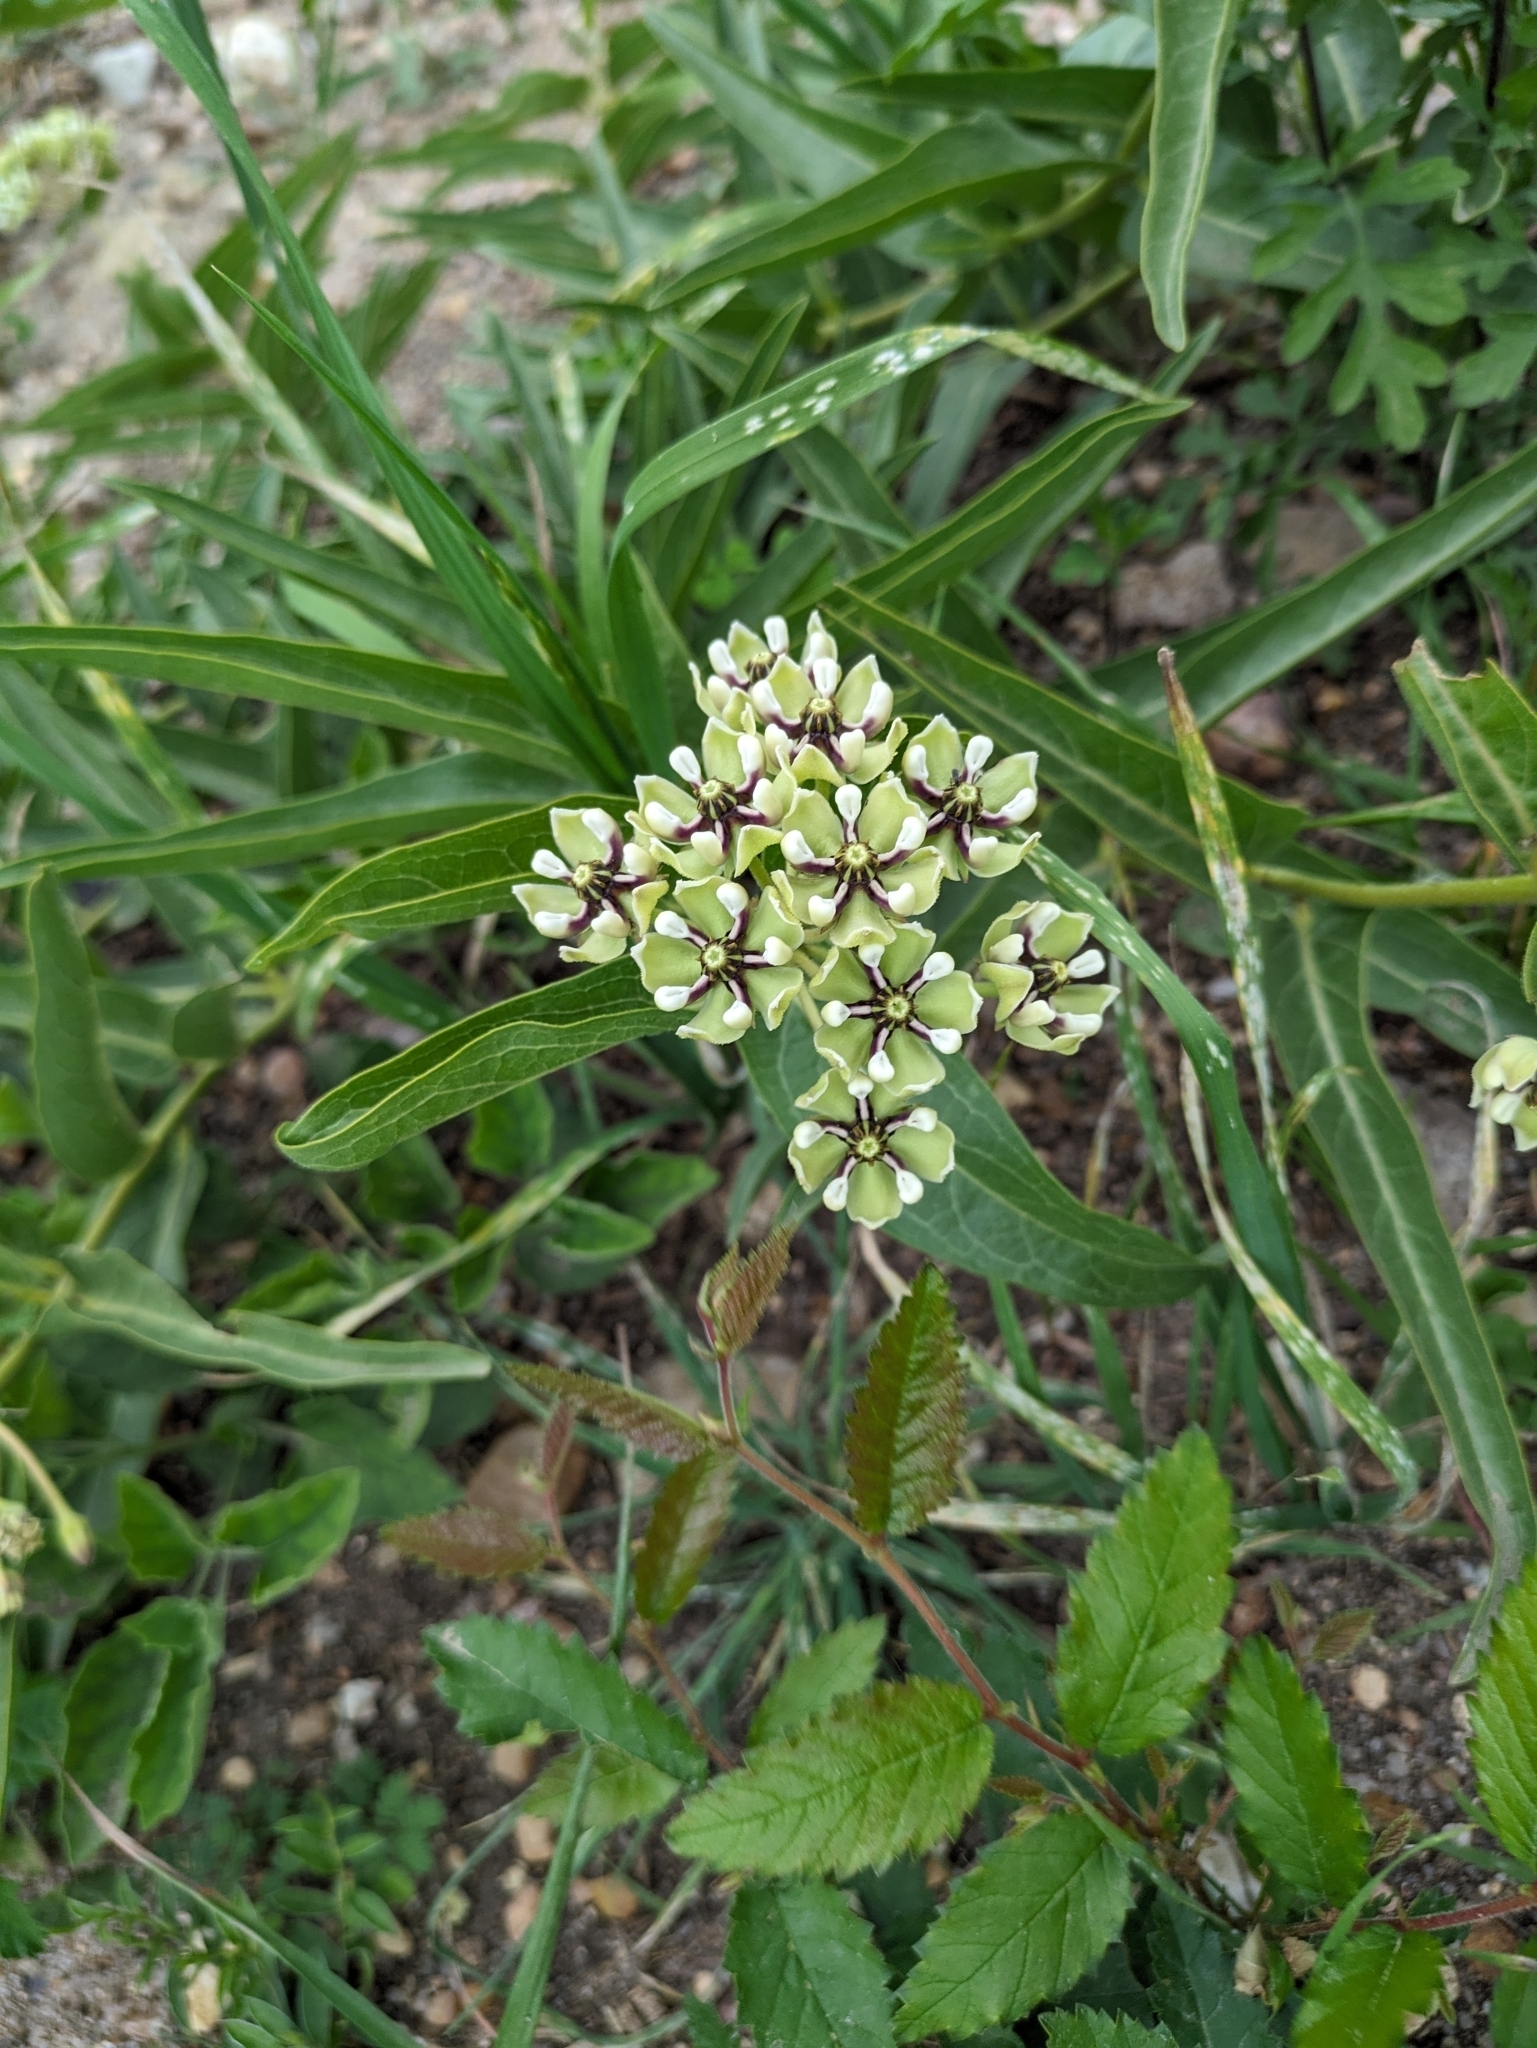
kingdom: Plantae
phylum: Tracheophyta
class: Magnoliopsida
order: Gentianales
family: Apocynaceae
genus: Asclepias
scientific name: Asclepias asperula
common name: Antelope horns
